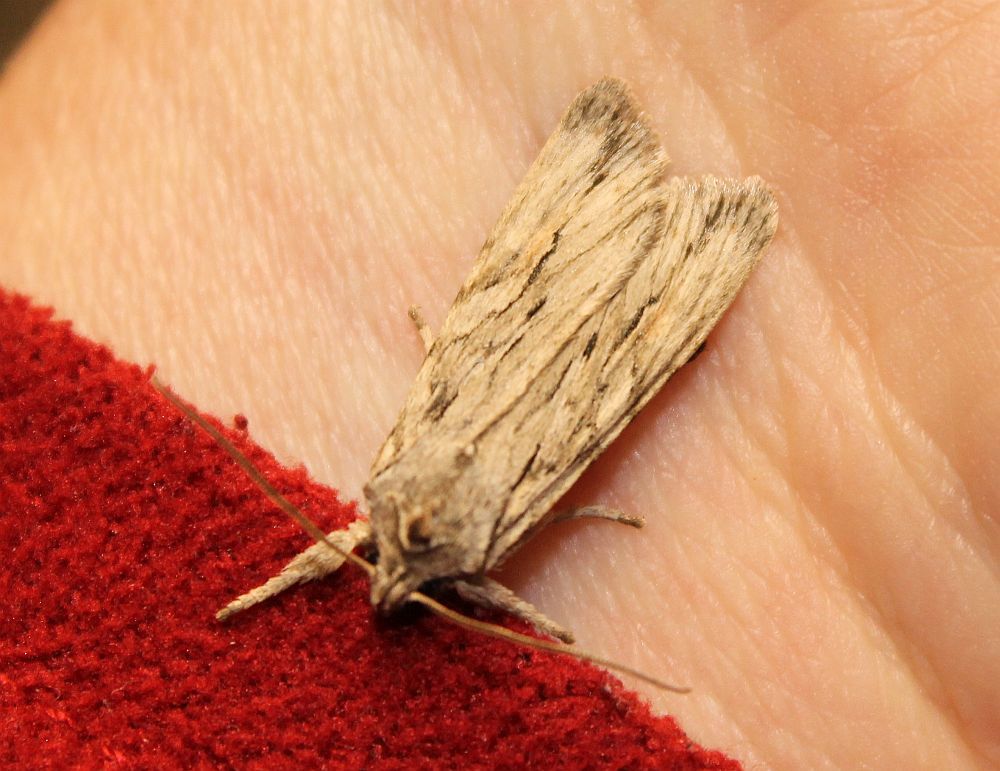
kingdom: Animalia
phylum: Arthropoda
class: Insecta
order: Lepidoptera
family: Noctuidae
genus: Lithophane
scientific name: Lithophane leautieri
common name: Blair's shoulder-knot
